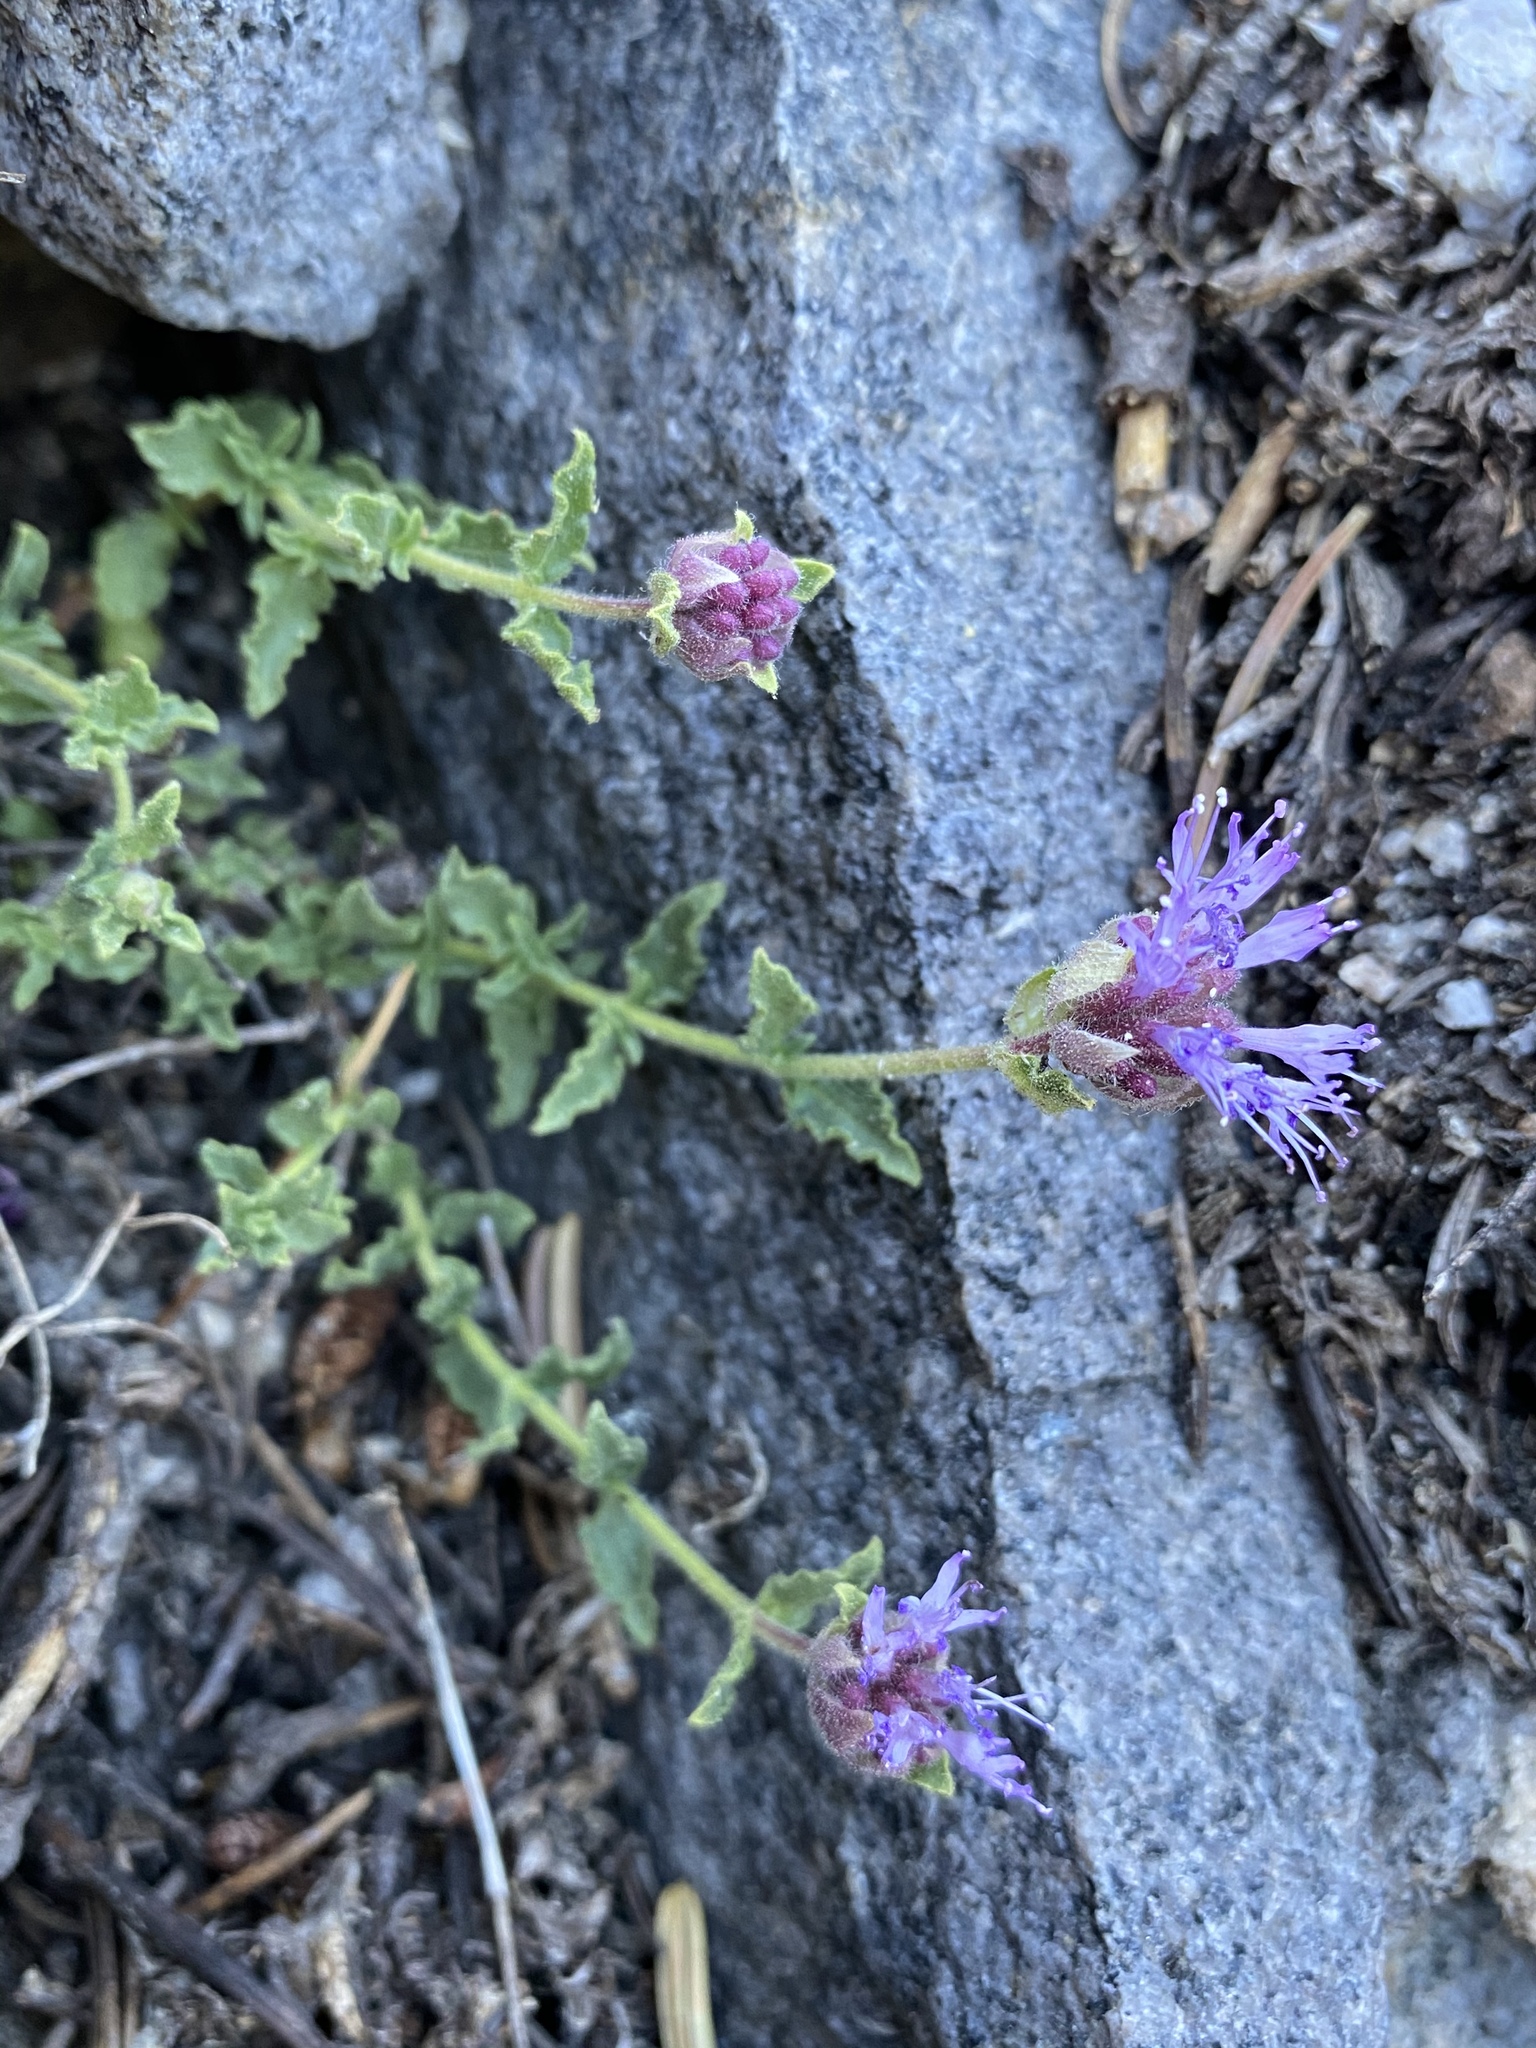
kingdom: Plantae
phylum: Tracheophyta
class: Magnoliopsida
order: Lamiales
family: Lamiaceae
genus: Monardella
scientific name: Monardella beneolens
